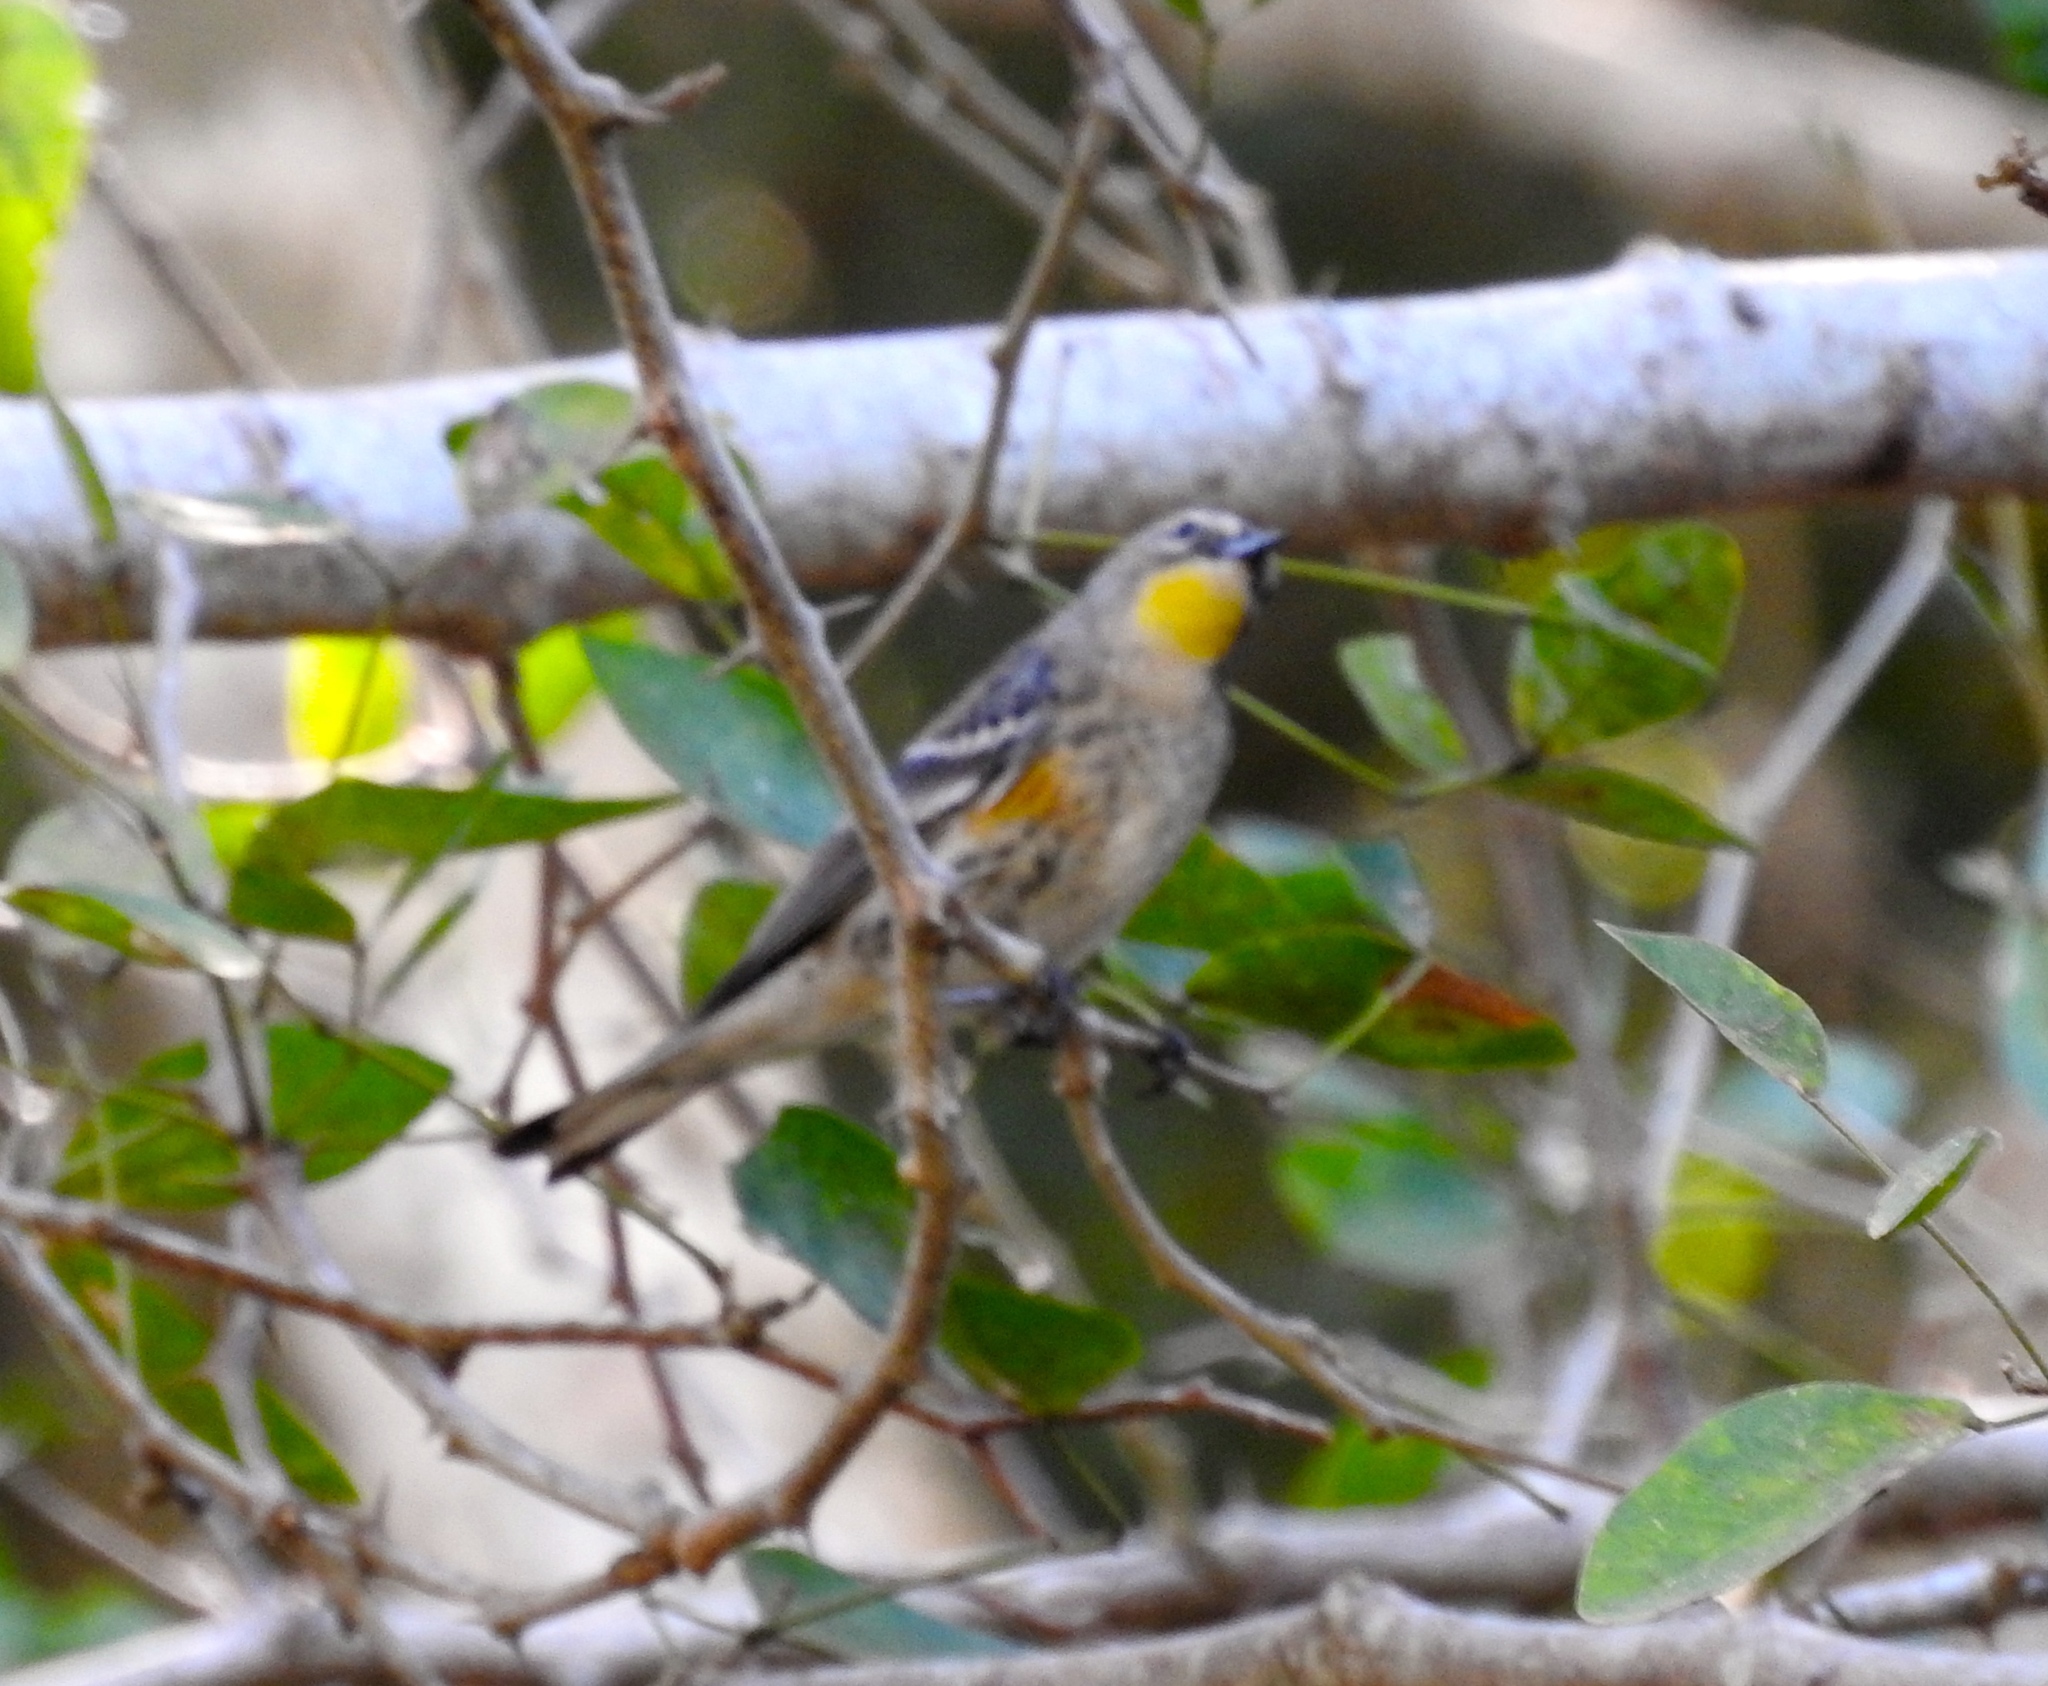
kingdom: Animalia
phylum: Chordata
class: Aves
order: Passeriformes
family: Parulidae
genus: Setophaga
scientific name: Setophaga auduboni
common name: Audubon's warbler
